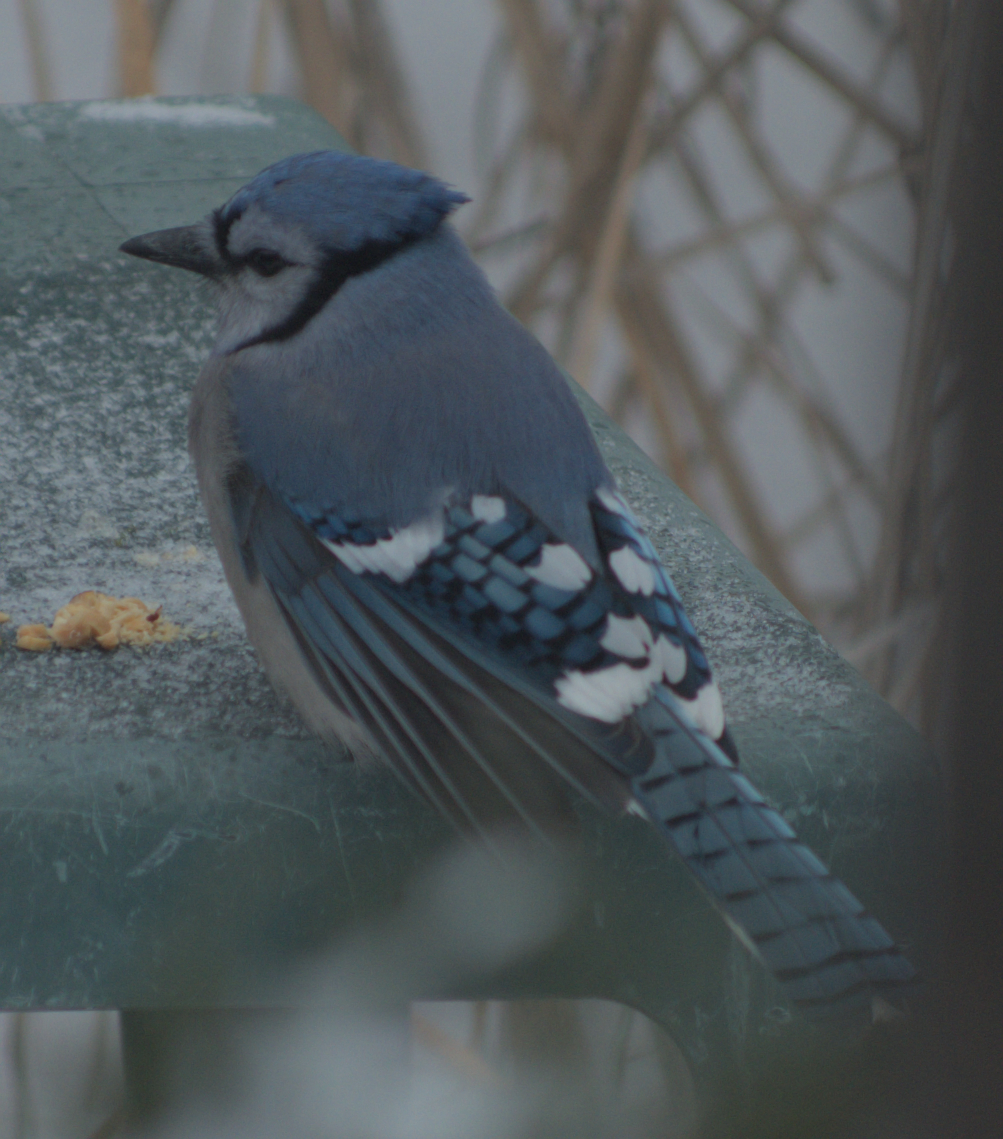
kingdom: Animalia
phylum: Chordata
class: Aves
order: Passeriformes
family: Corvidae
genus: Cyanocitta
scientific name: Cyanocitta cristata
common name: Blue jay
